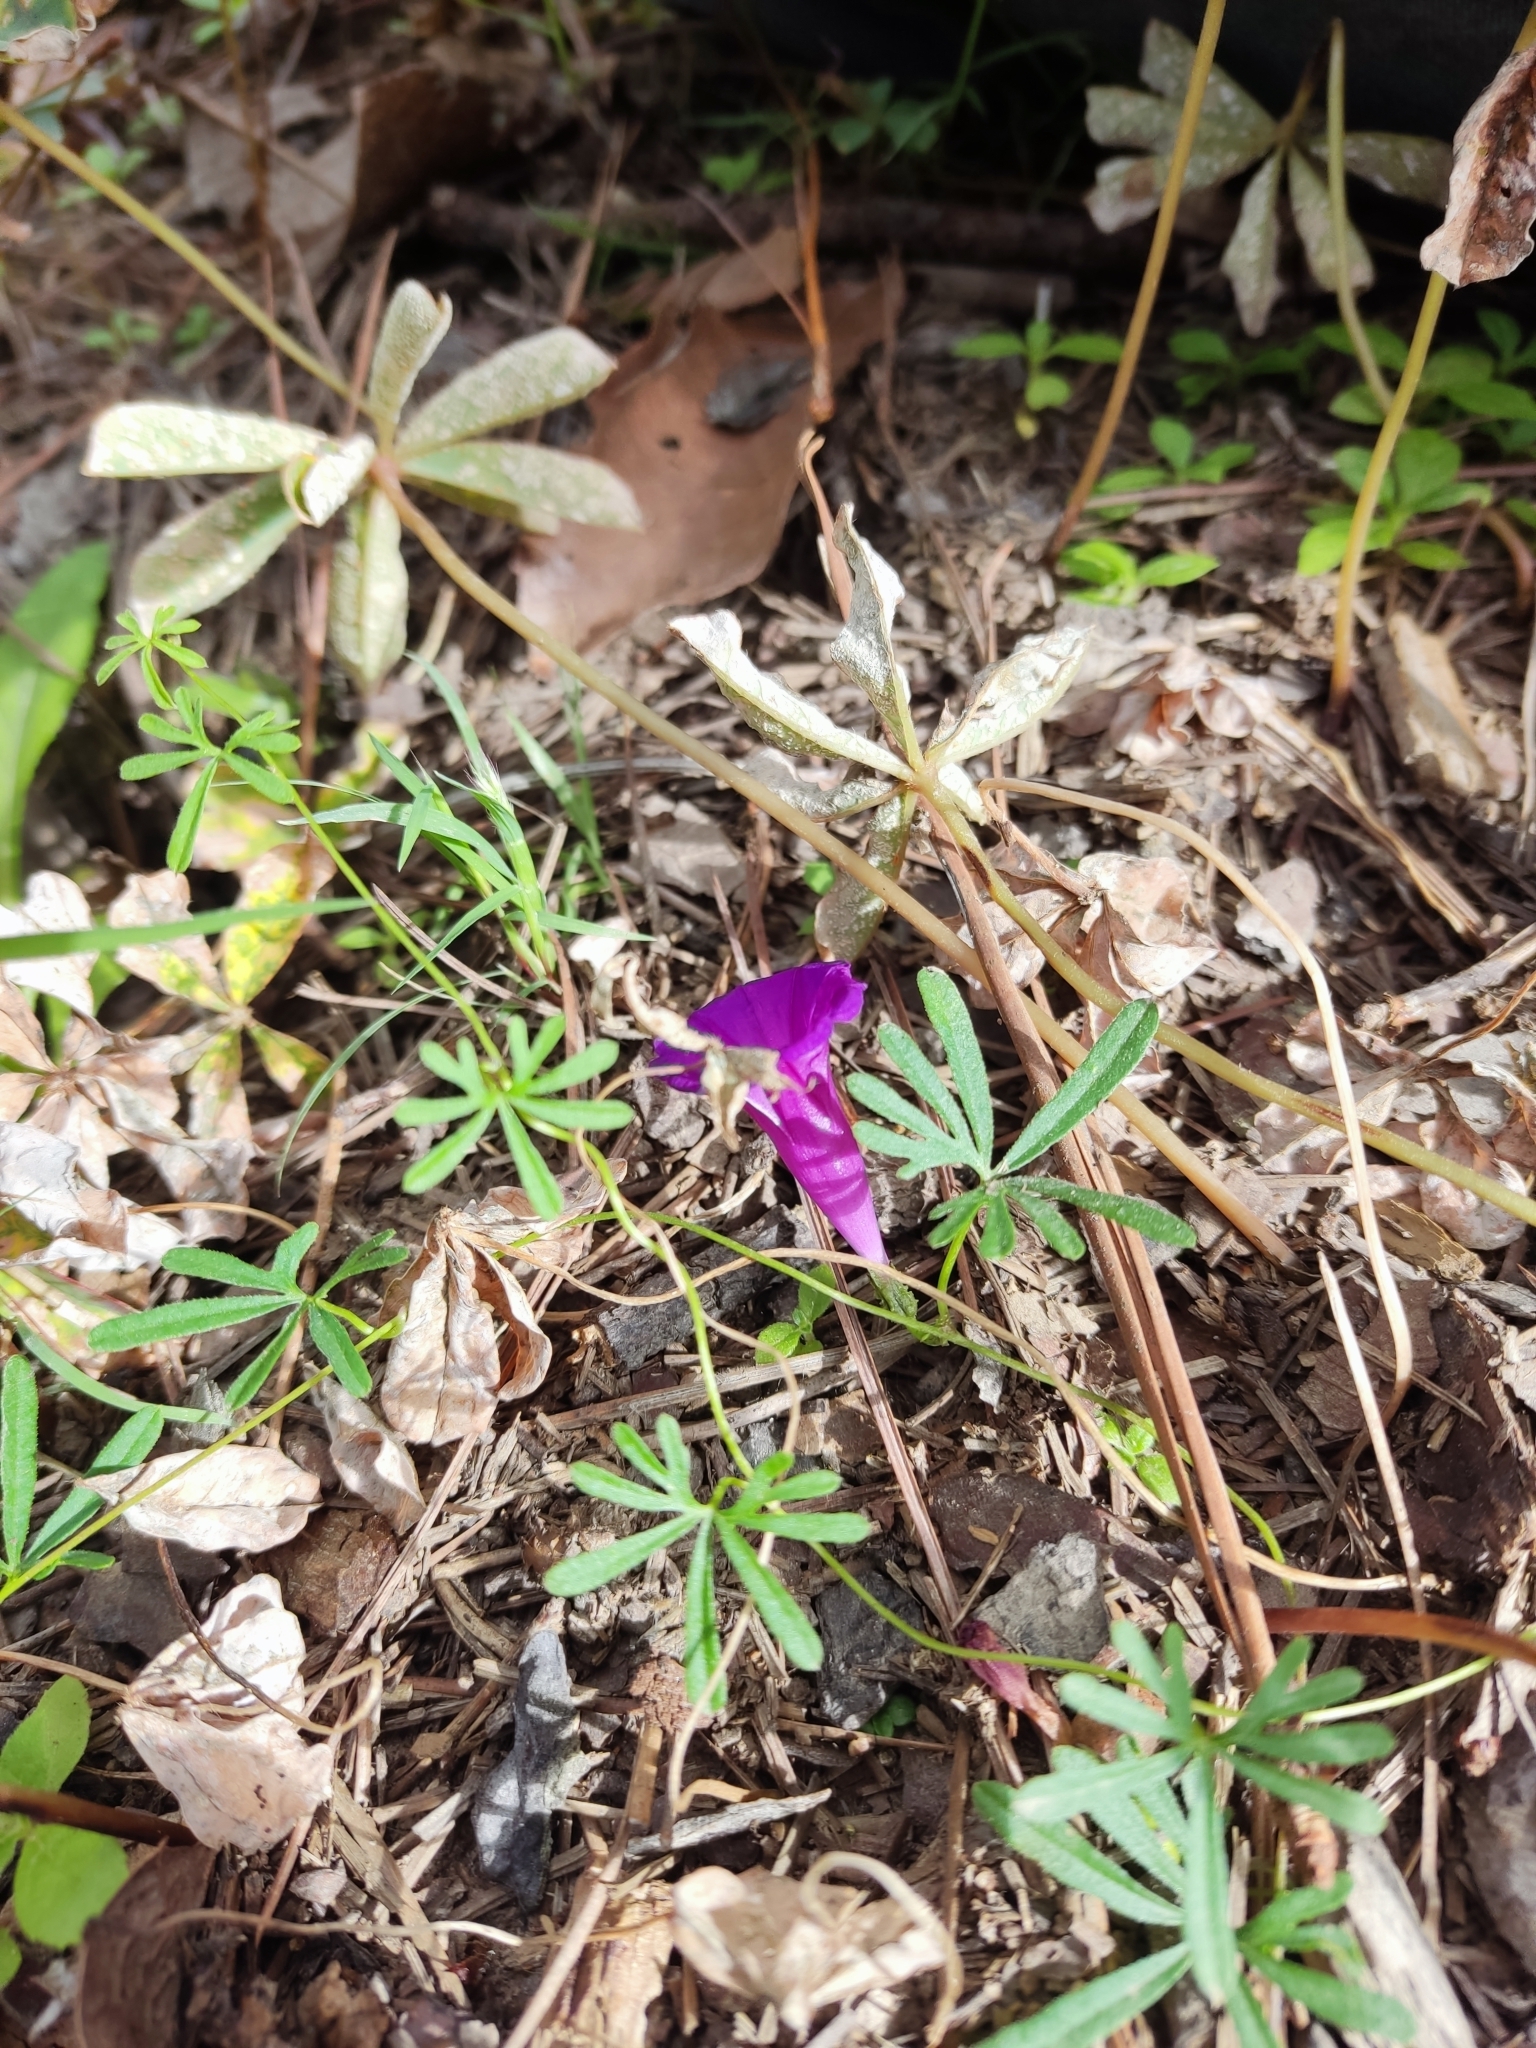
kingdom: Plantae
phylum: Tracheophyta
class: Magnoliopsida
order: Solanales
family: Convolvulaceae
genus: Ipomoea
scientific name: Ipomoea plummerae
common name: Plummer's morning-glory
